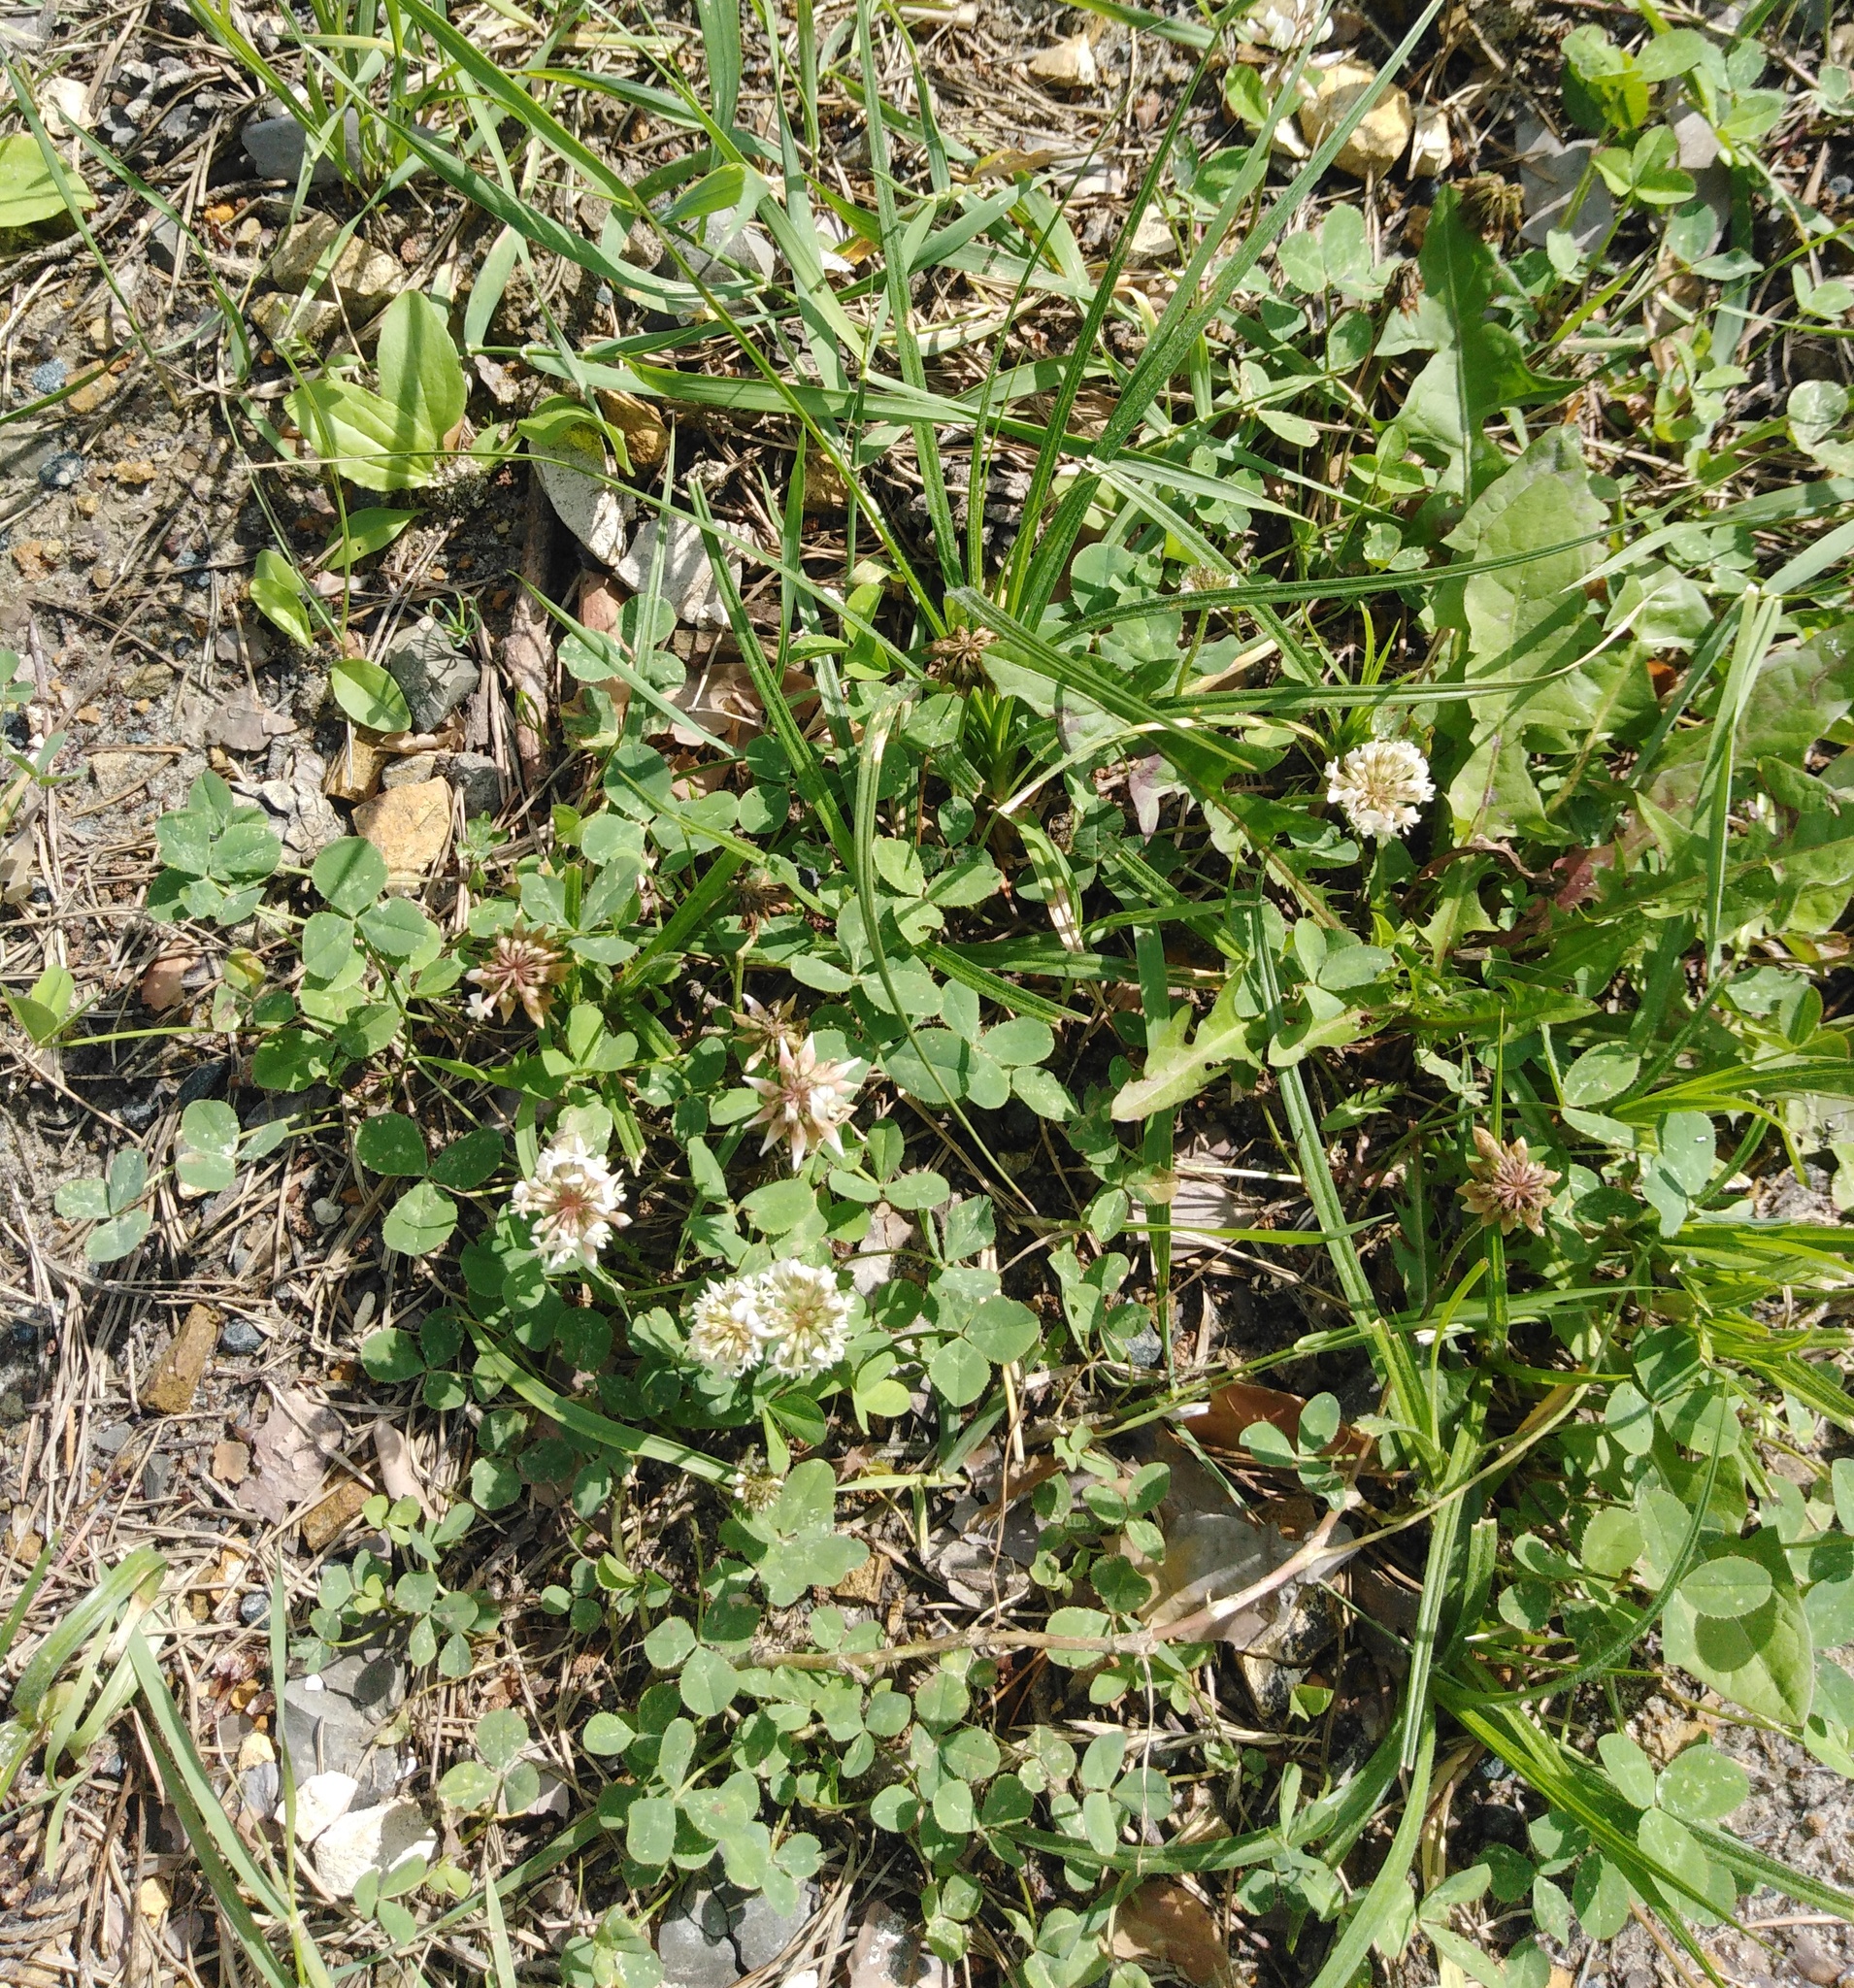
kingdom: Plantae
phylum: Tracheophyta
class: Magnoliopsida
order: Fabales
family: Fabaceae
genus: Trifolium
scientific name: Trifolium repens
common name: White clover
